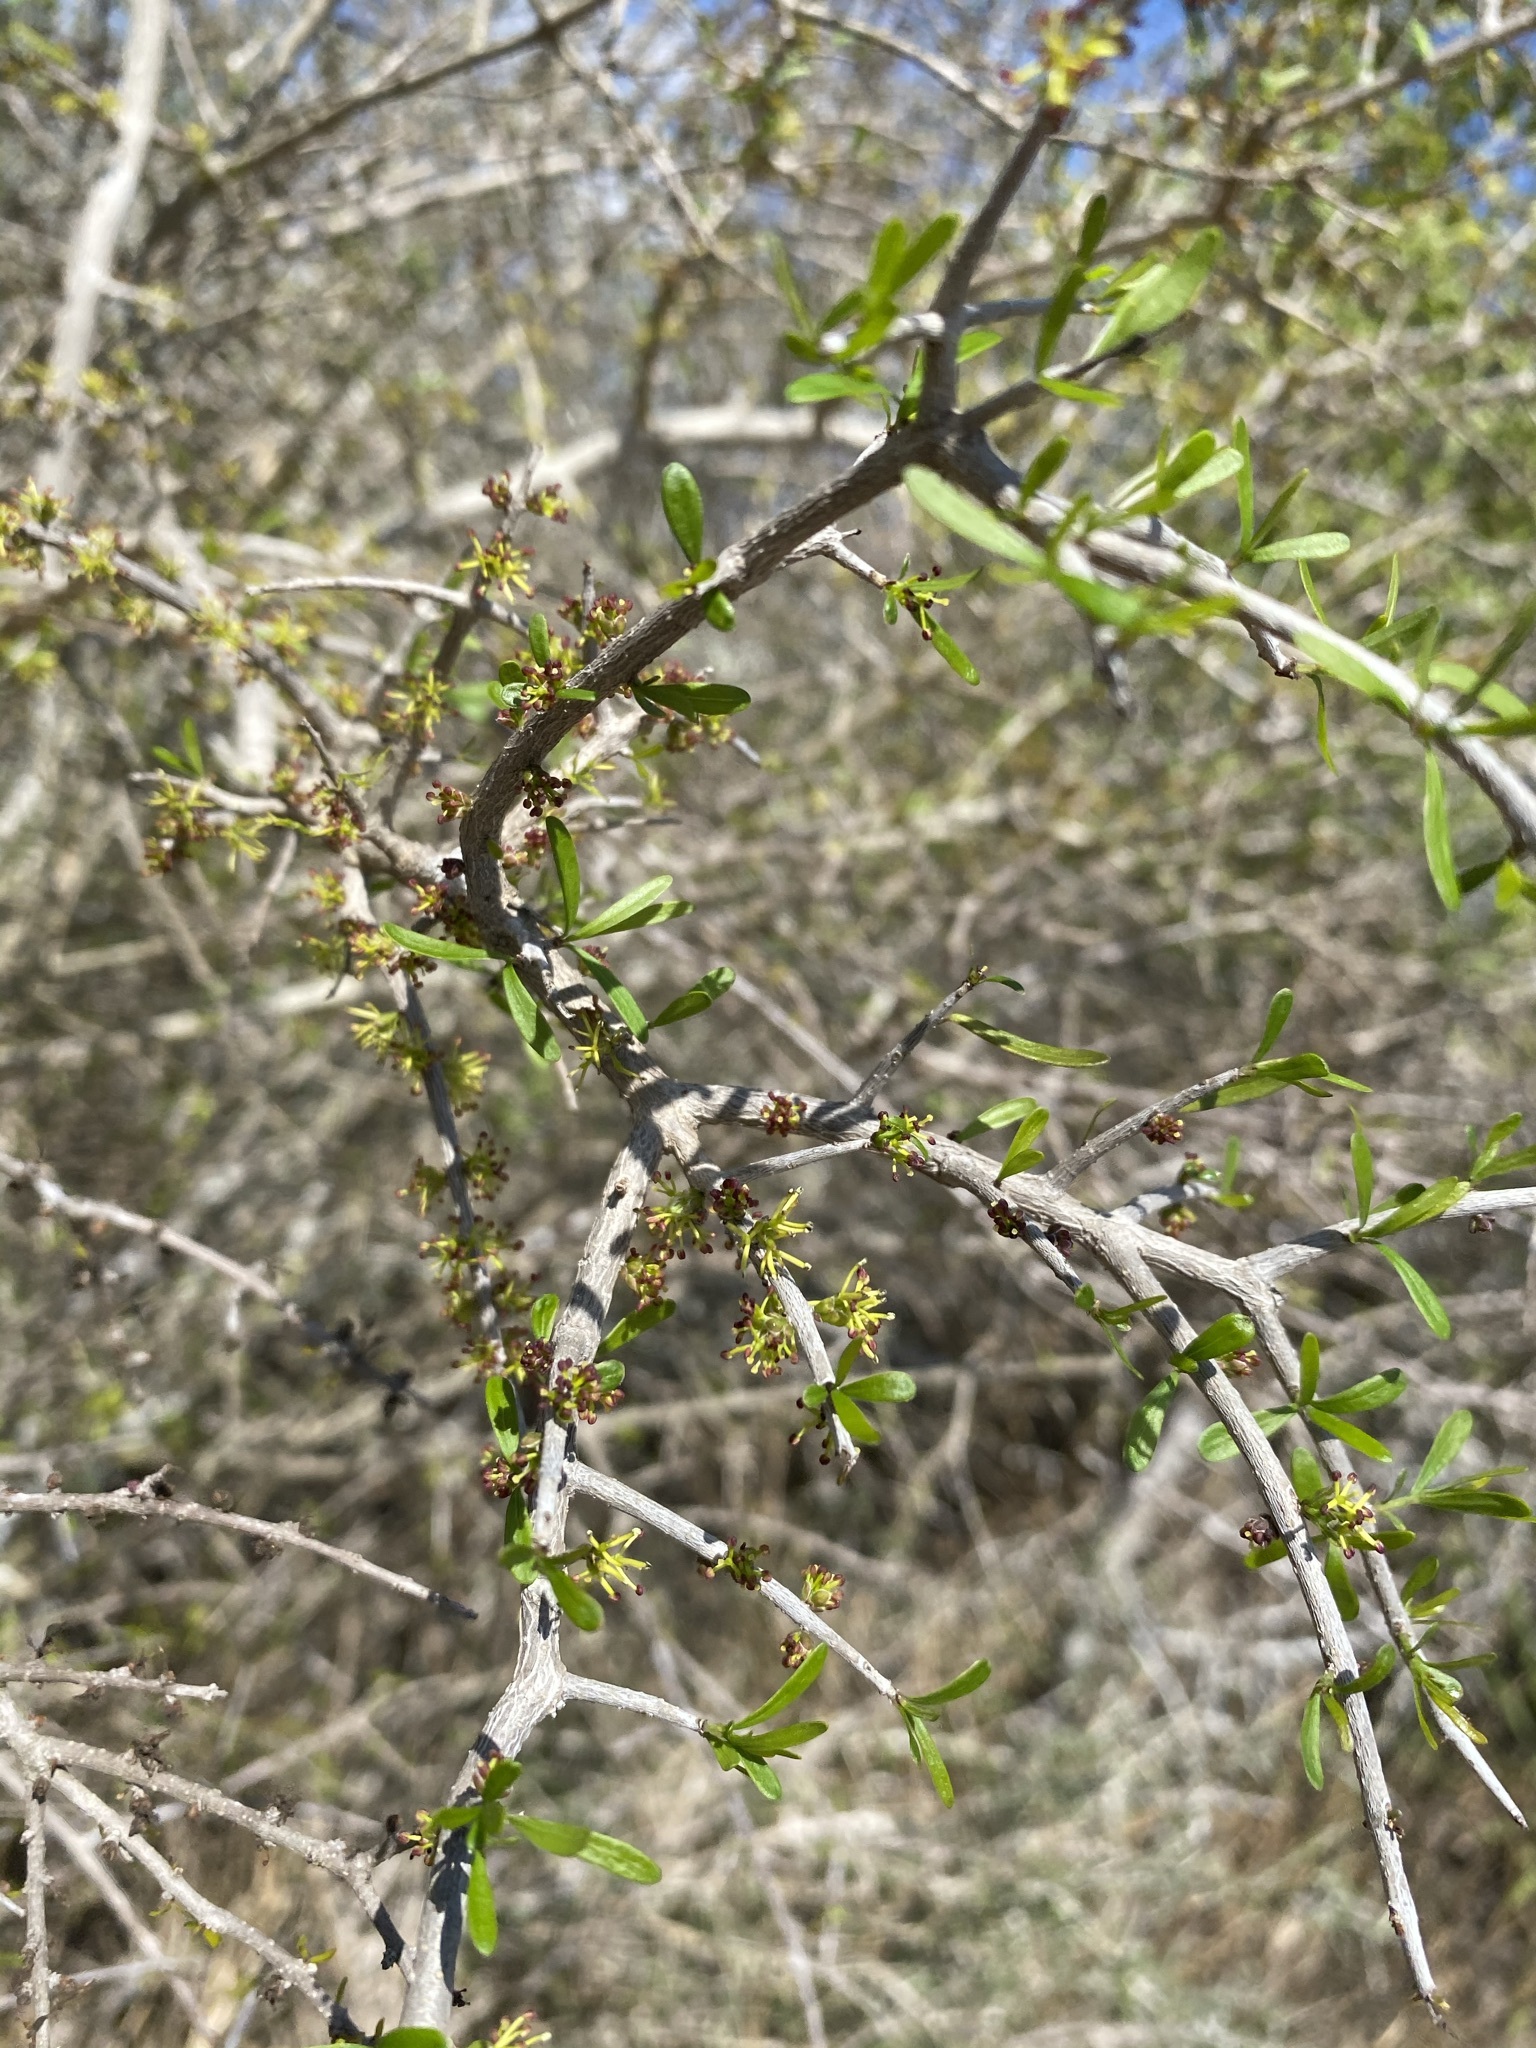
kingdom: Plantae
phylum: Tracheophyta
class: Magnoliopsida
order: Lamiales
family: Oleaceae
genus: Forestiera
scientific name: Forestiera angustifolia
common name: Elbowbush
